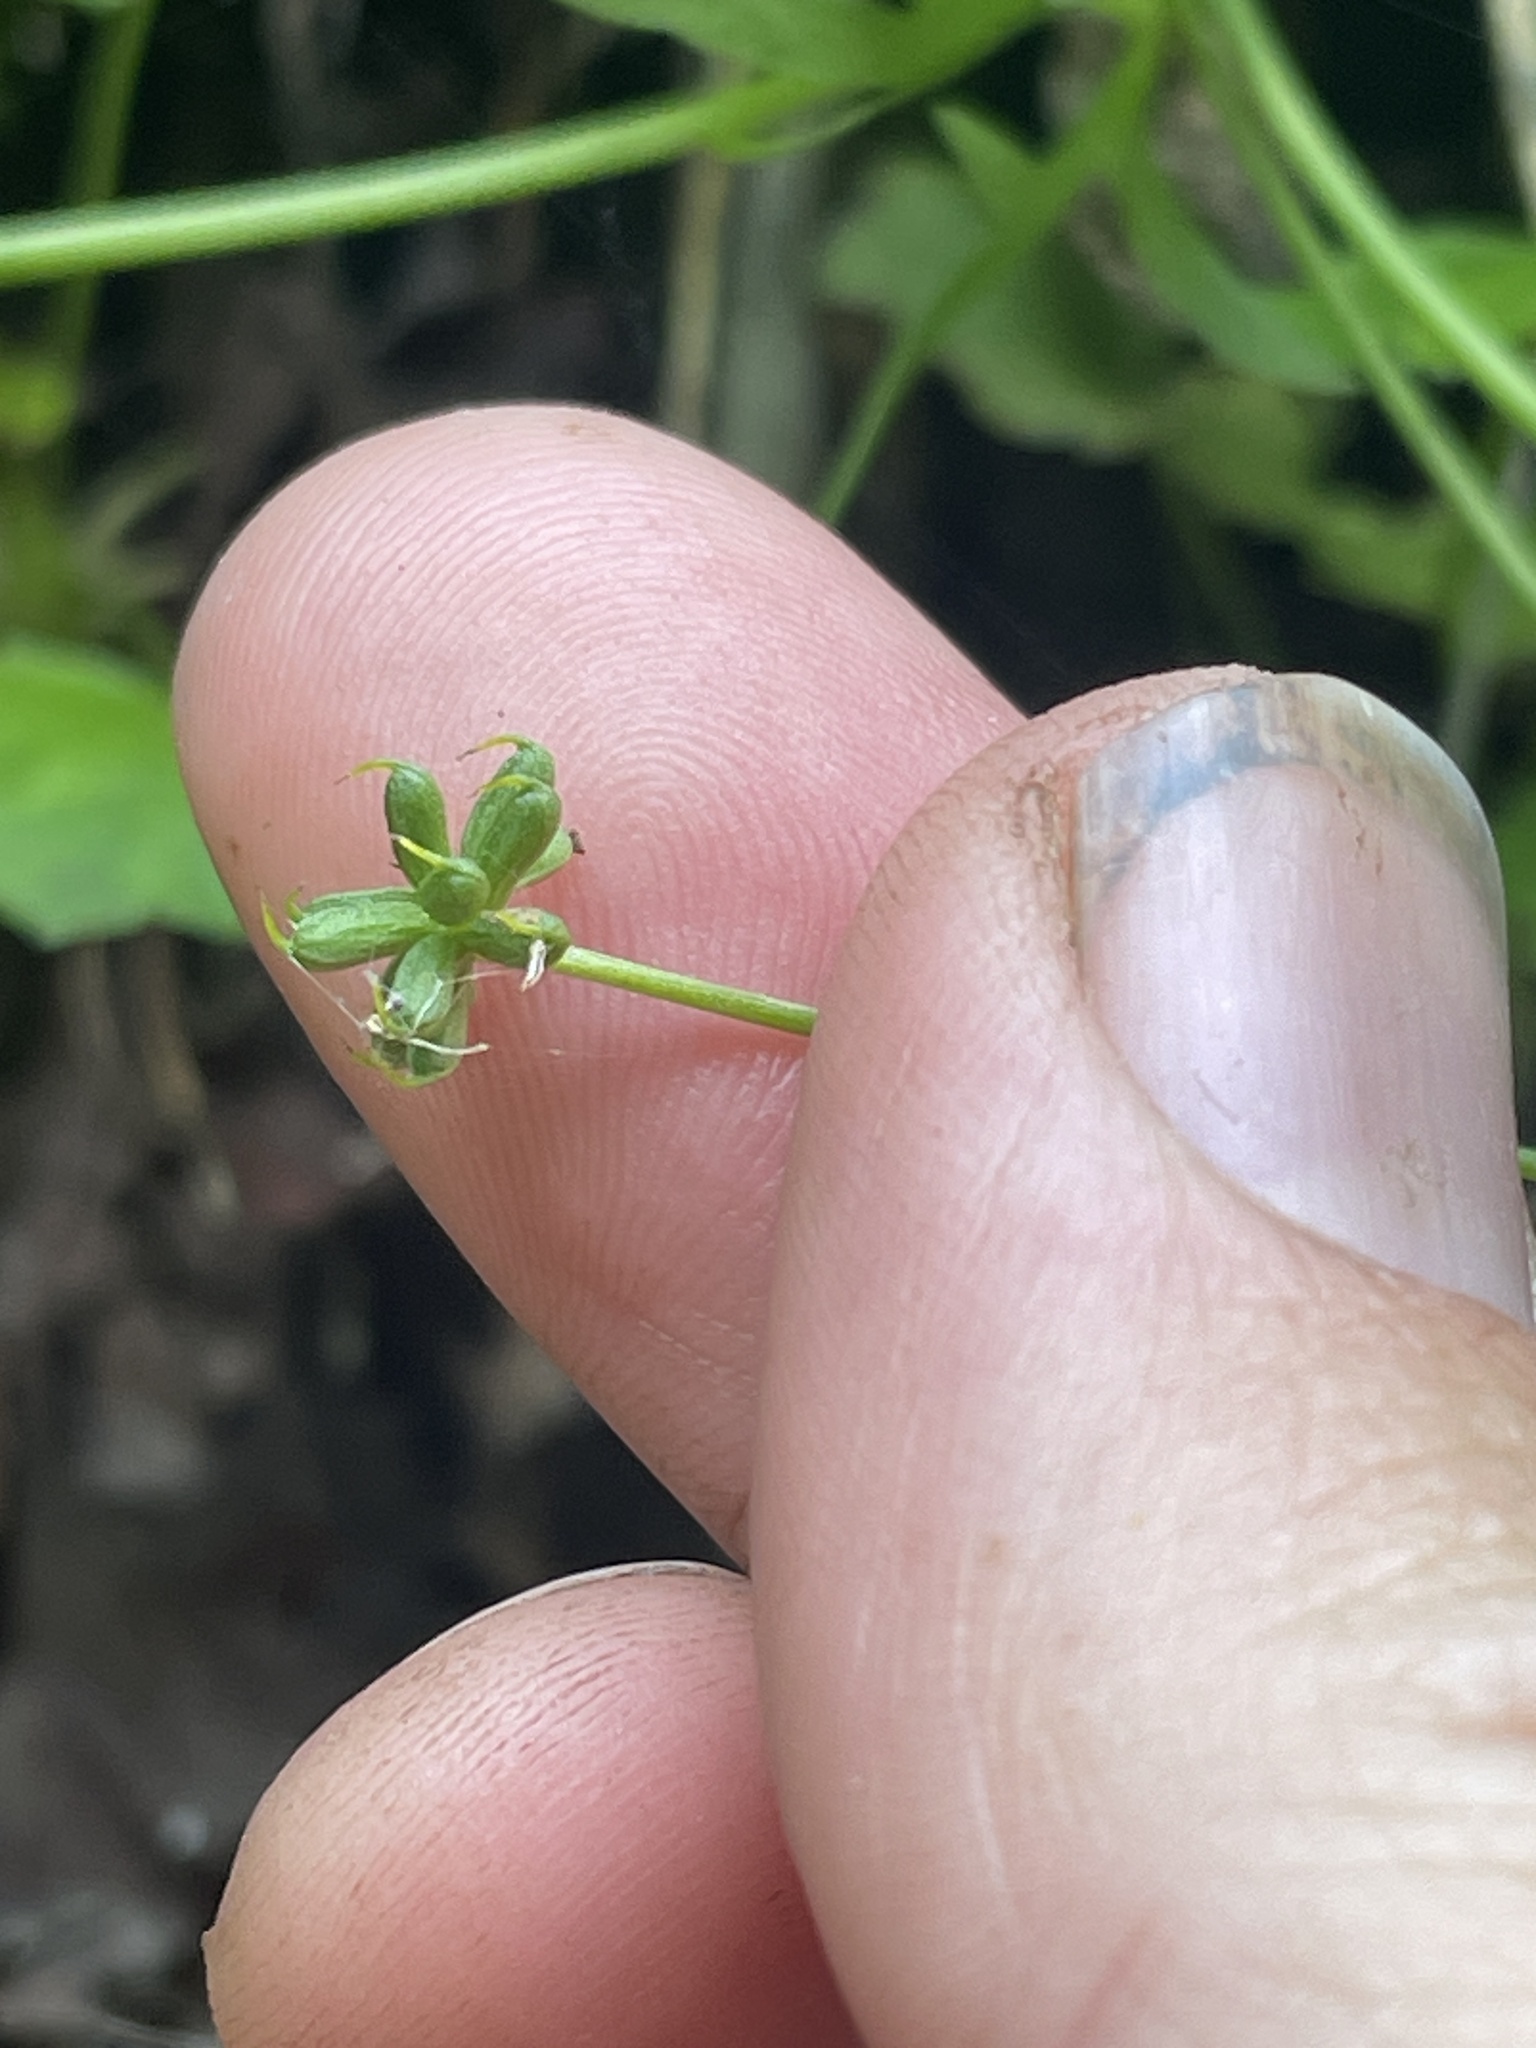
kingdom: Plantae
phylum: Tracheophyta
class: Magnoliopsida
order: Ranunculales
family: Ranunculaceae
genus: Cyrtorhyncha
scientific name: Cyrtorhyncha ranunculina
